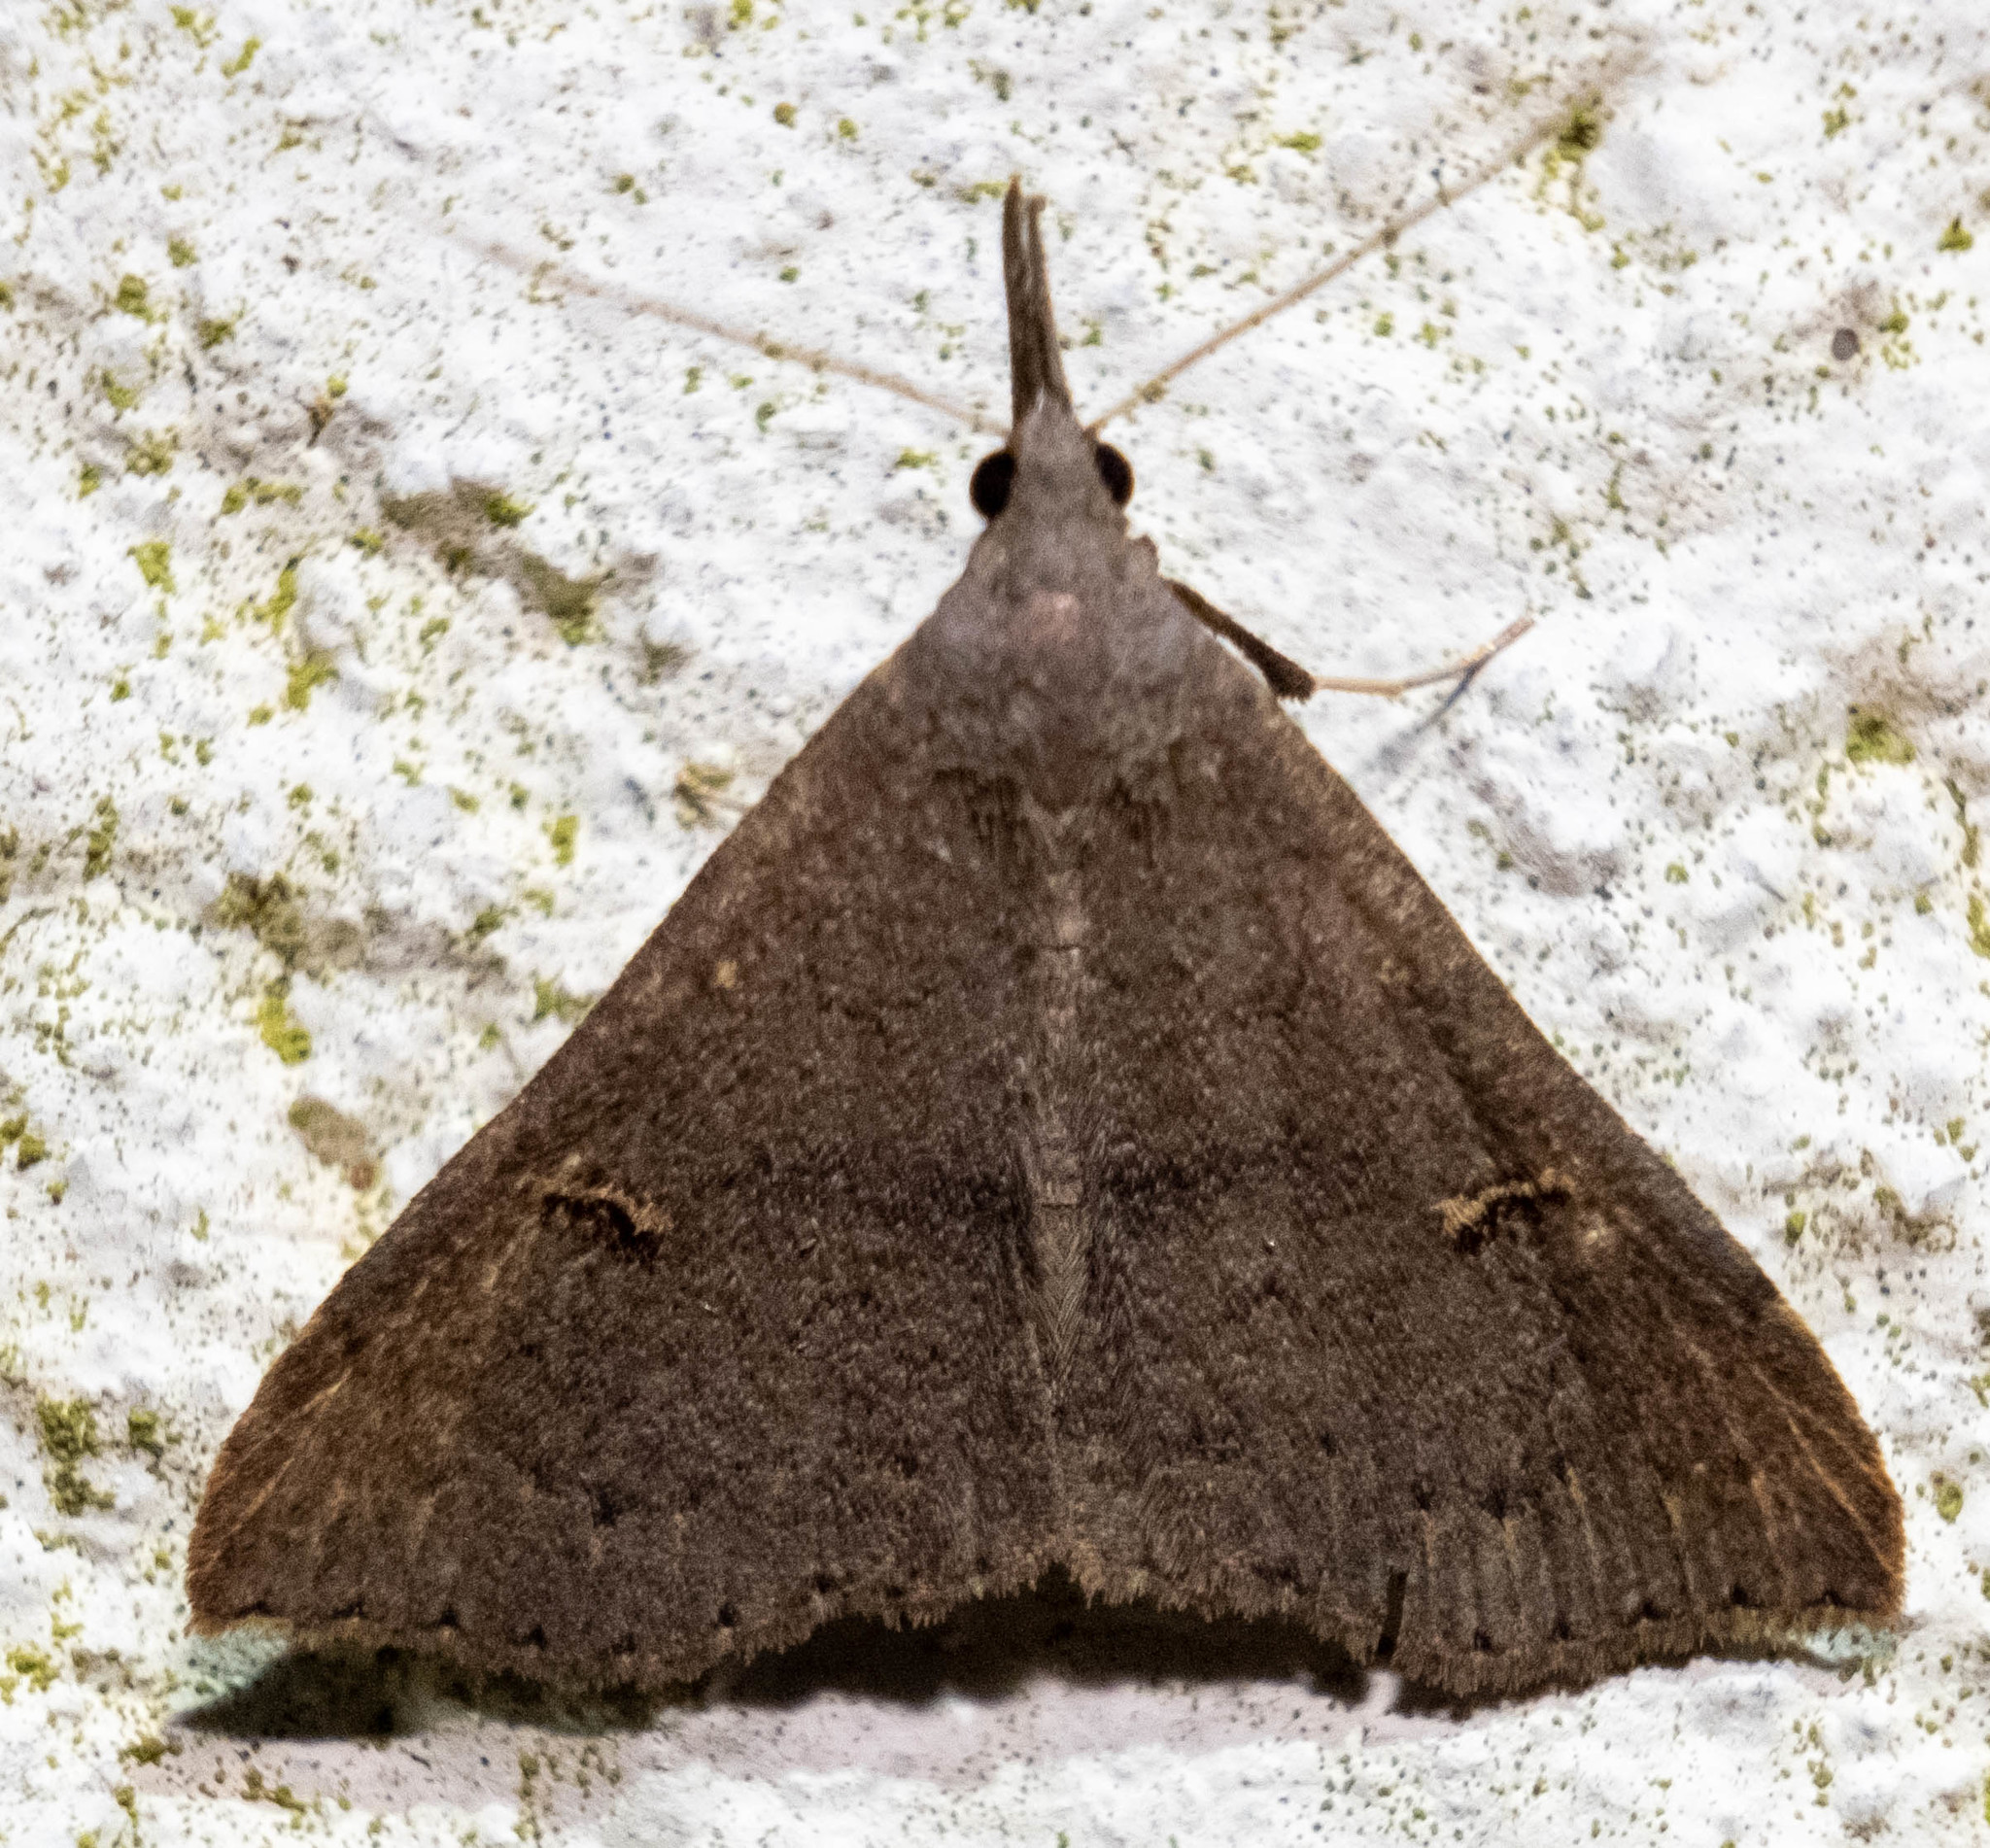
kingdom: Animalia
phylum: Arthropoda
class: Insecta
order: Lepidoptera
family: Erebidae
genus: Renia
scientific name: Renia adspergillus
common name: Speckled renia moth
